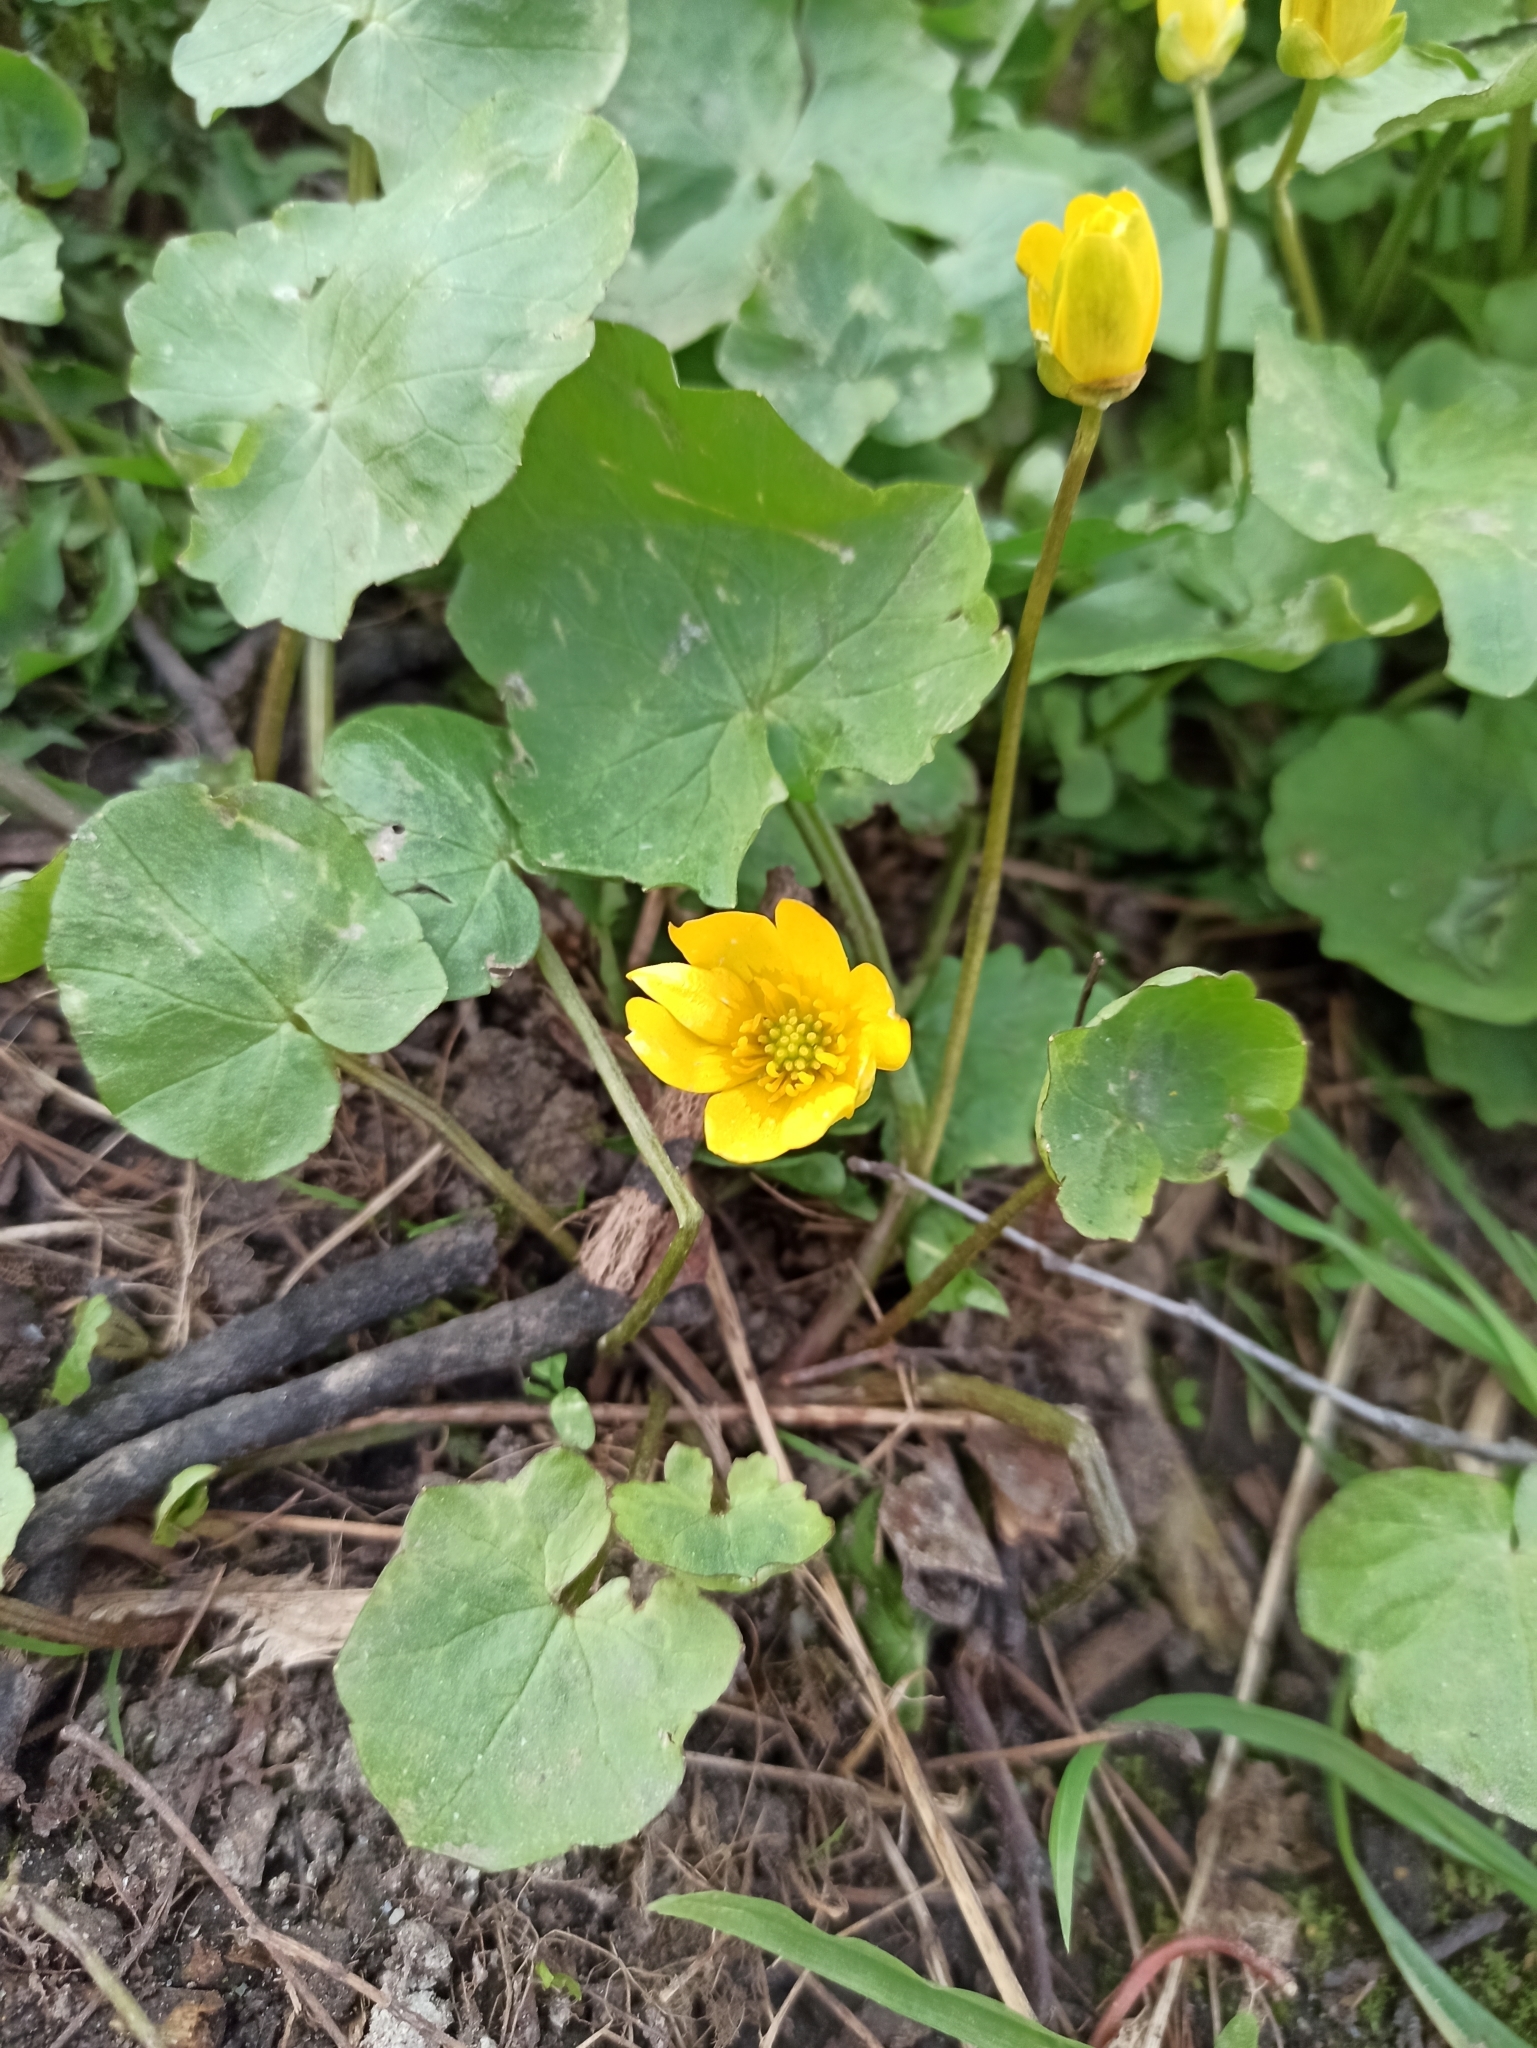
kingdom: Plantae
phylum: Tracheophyta
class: Magnoliopsida
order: Ranunculales
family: Ranunculaceae
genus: Ficaria
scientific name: Ficaria verna
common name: Lesser celandine
